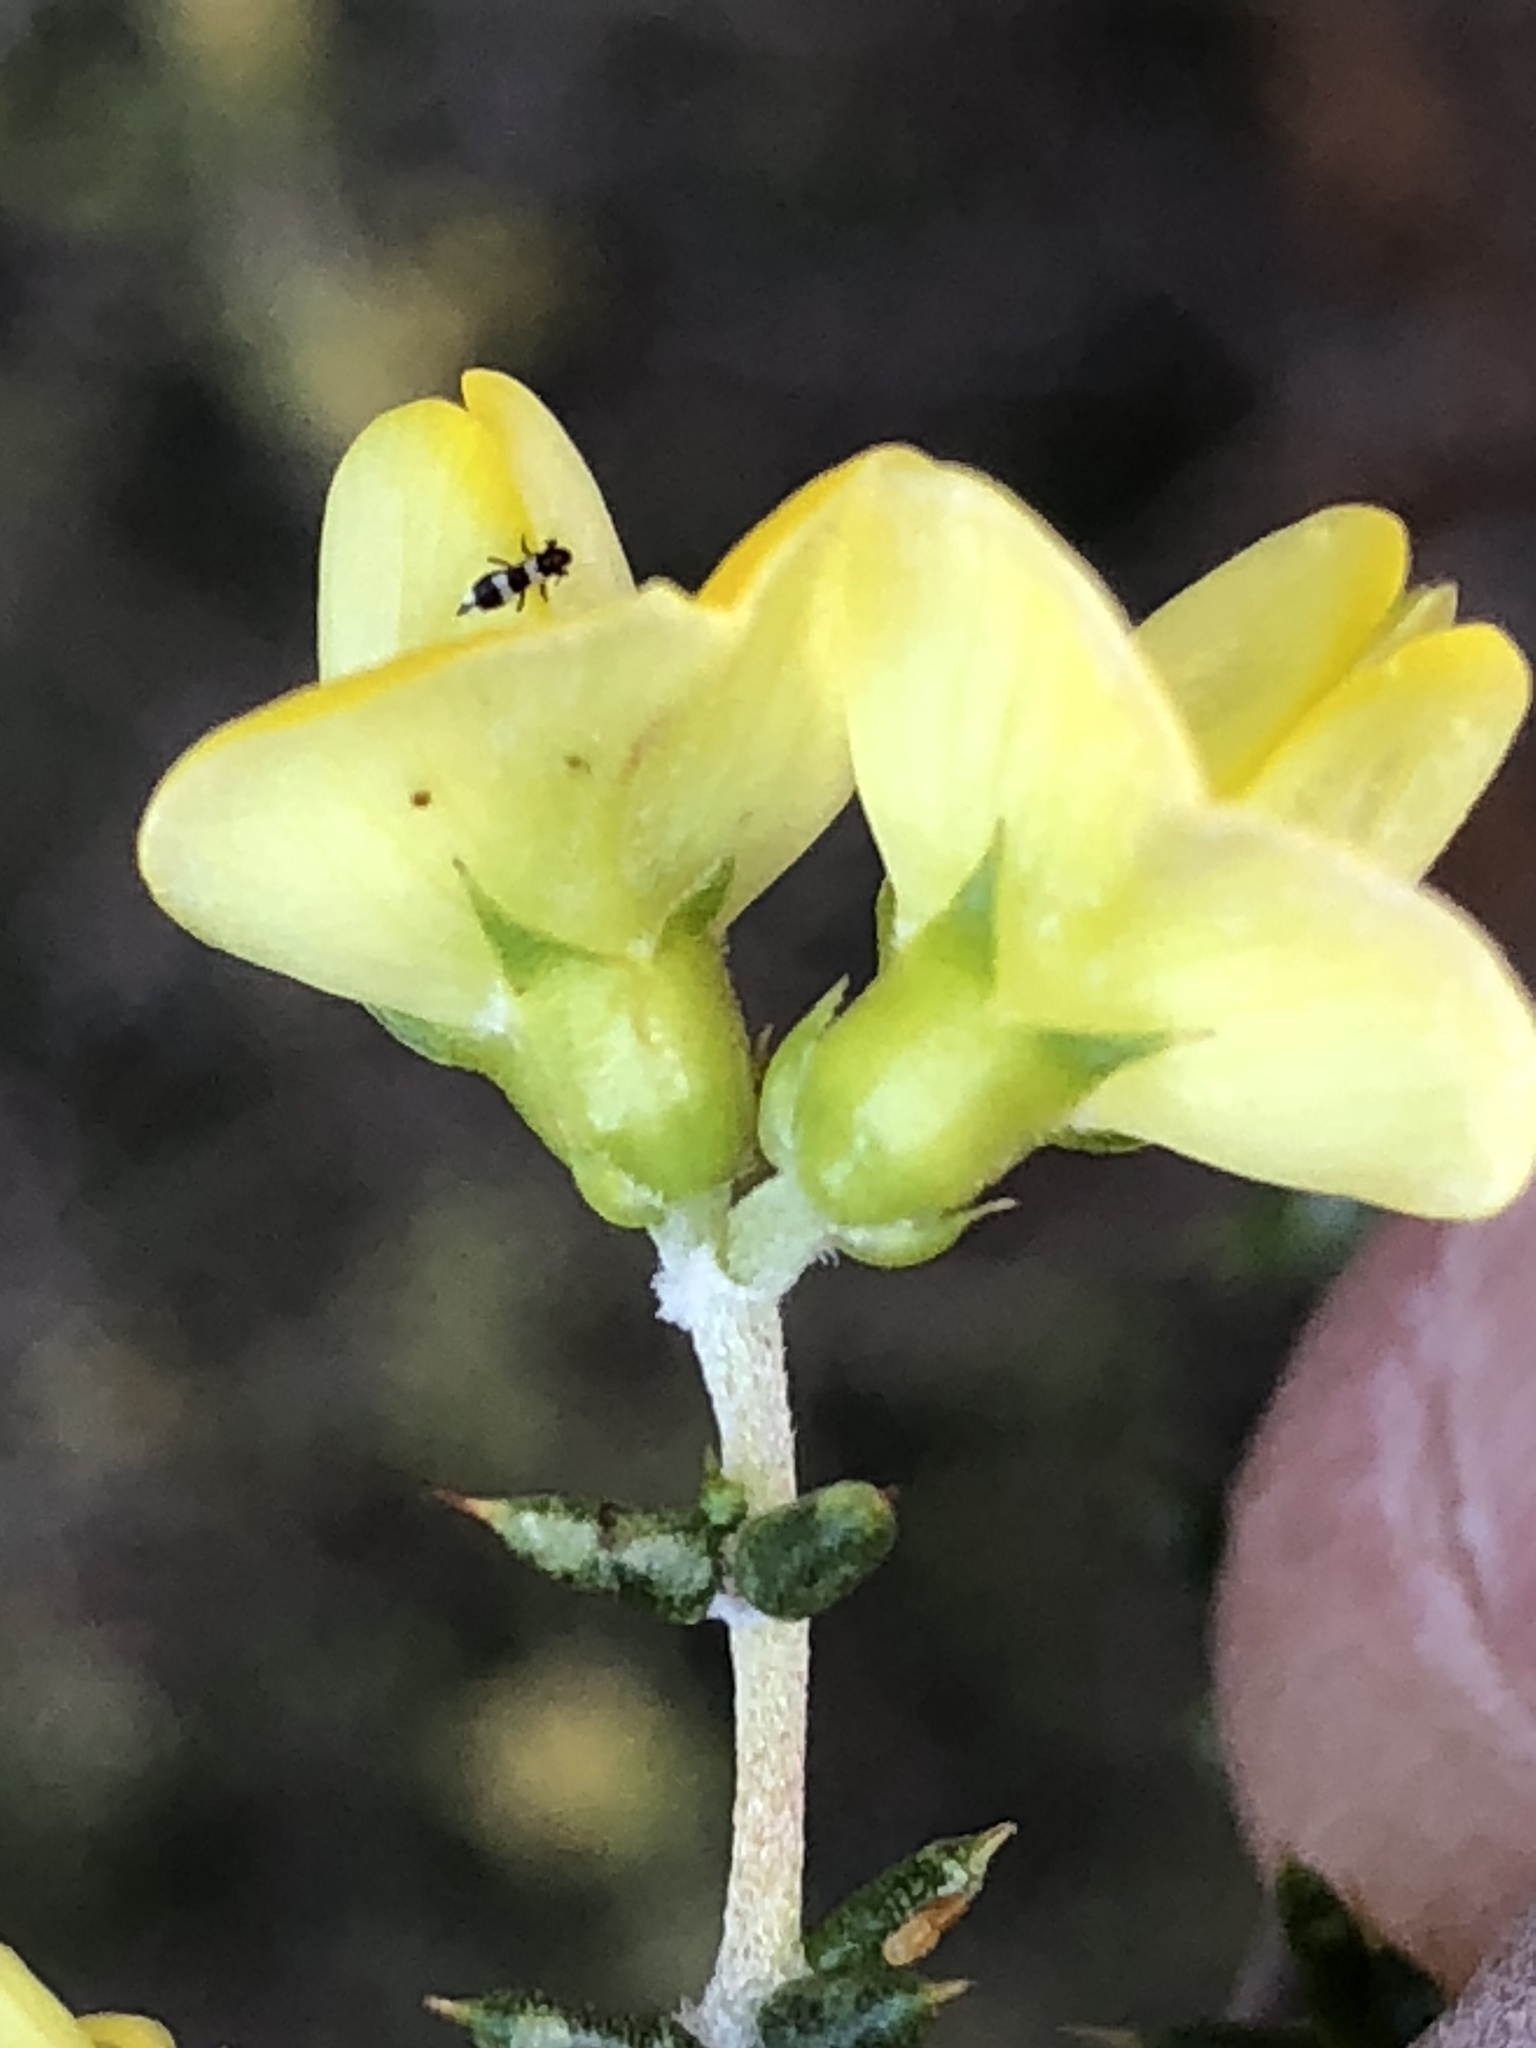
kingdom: Plantae
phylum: Tracheophyta
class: Magnoliopsida
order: Fabales
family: Fabaceae
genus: Aspalathus
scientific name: Aspalathus collina
